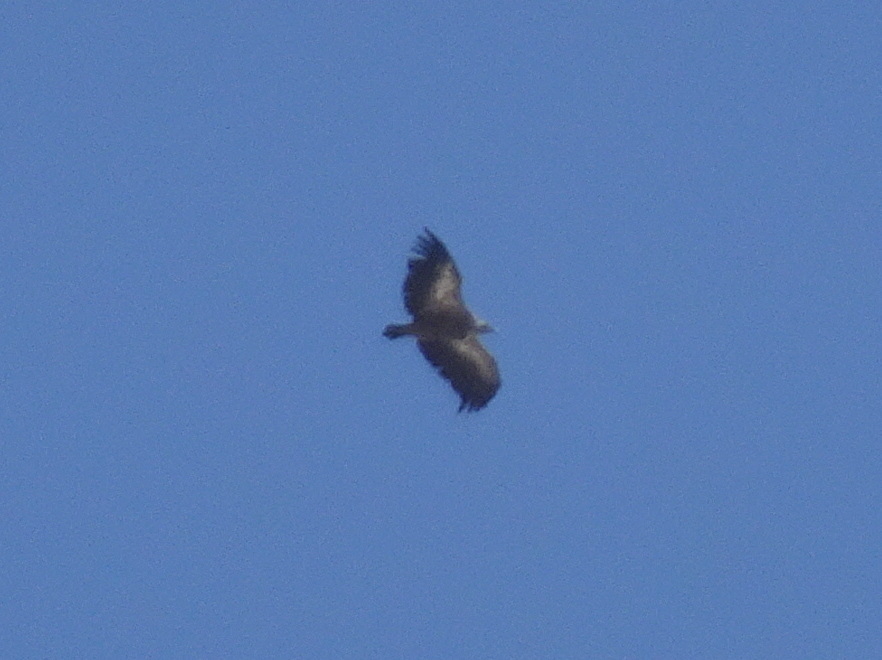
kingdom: Animalia
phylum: Chordata
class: Aves
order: Accipitriformes
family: Accipitridae
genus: Gyps
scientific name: Gyps fulvus
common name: Griffon vulture
